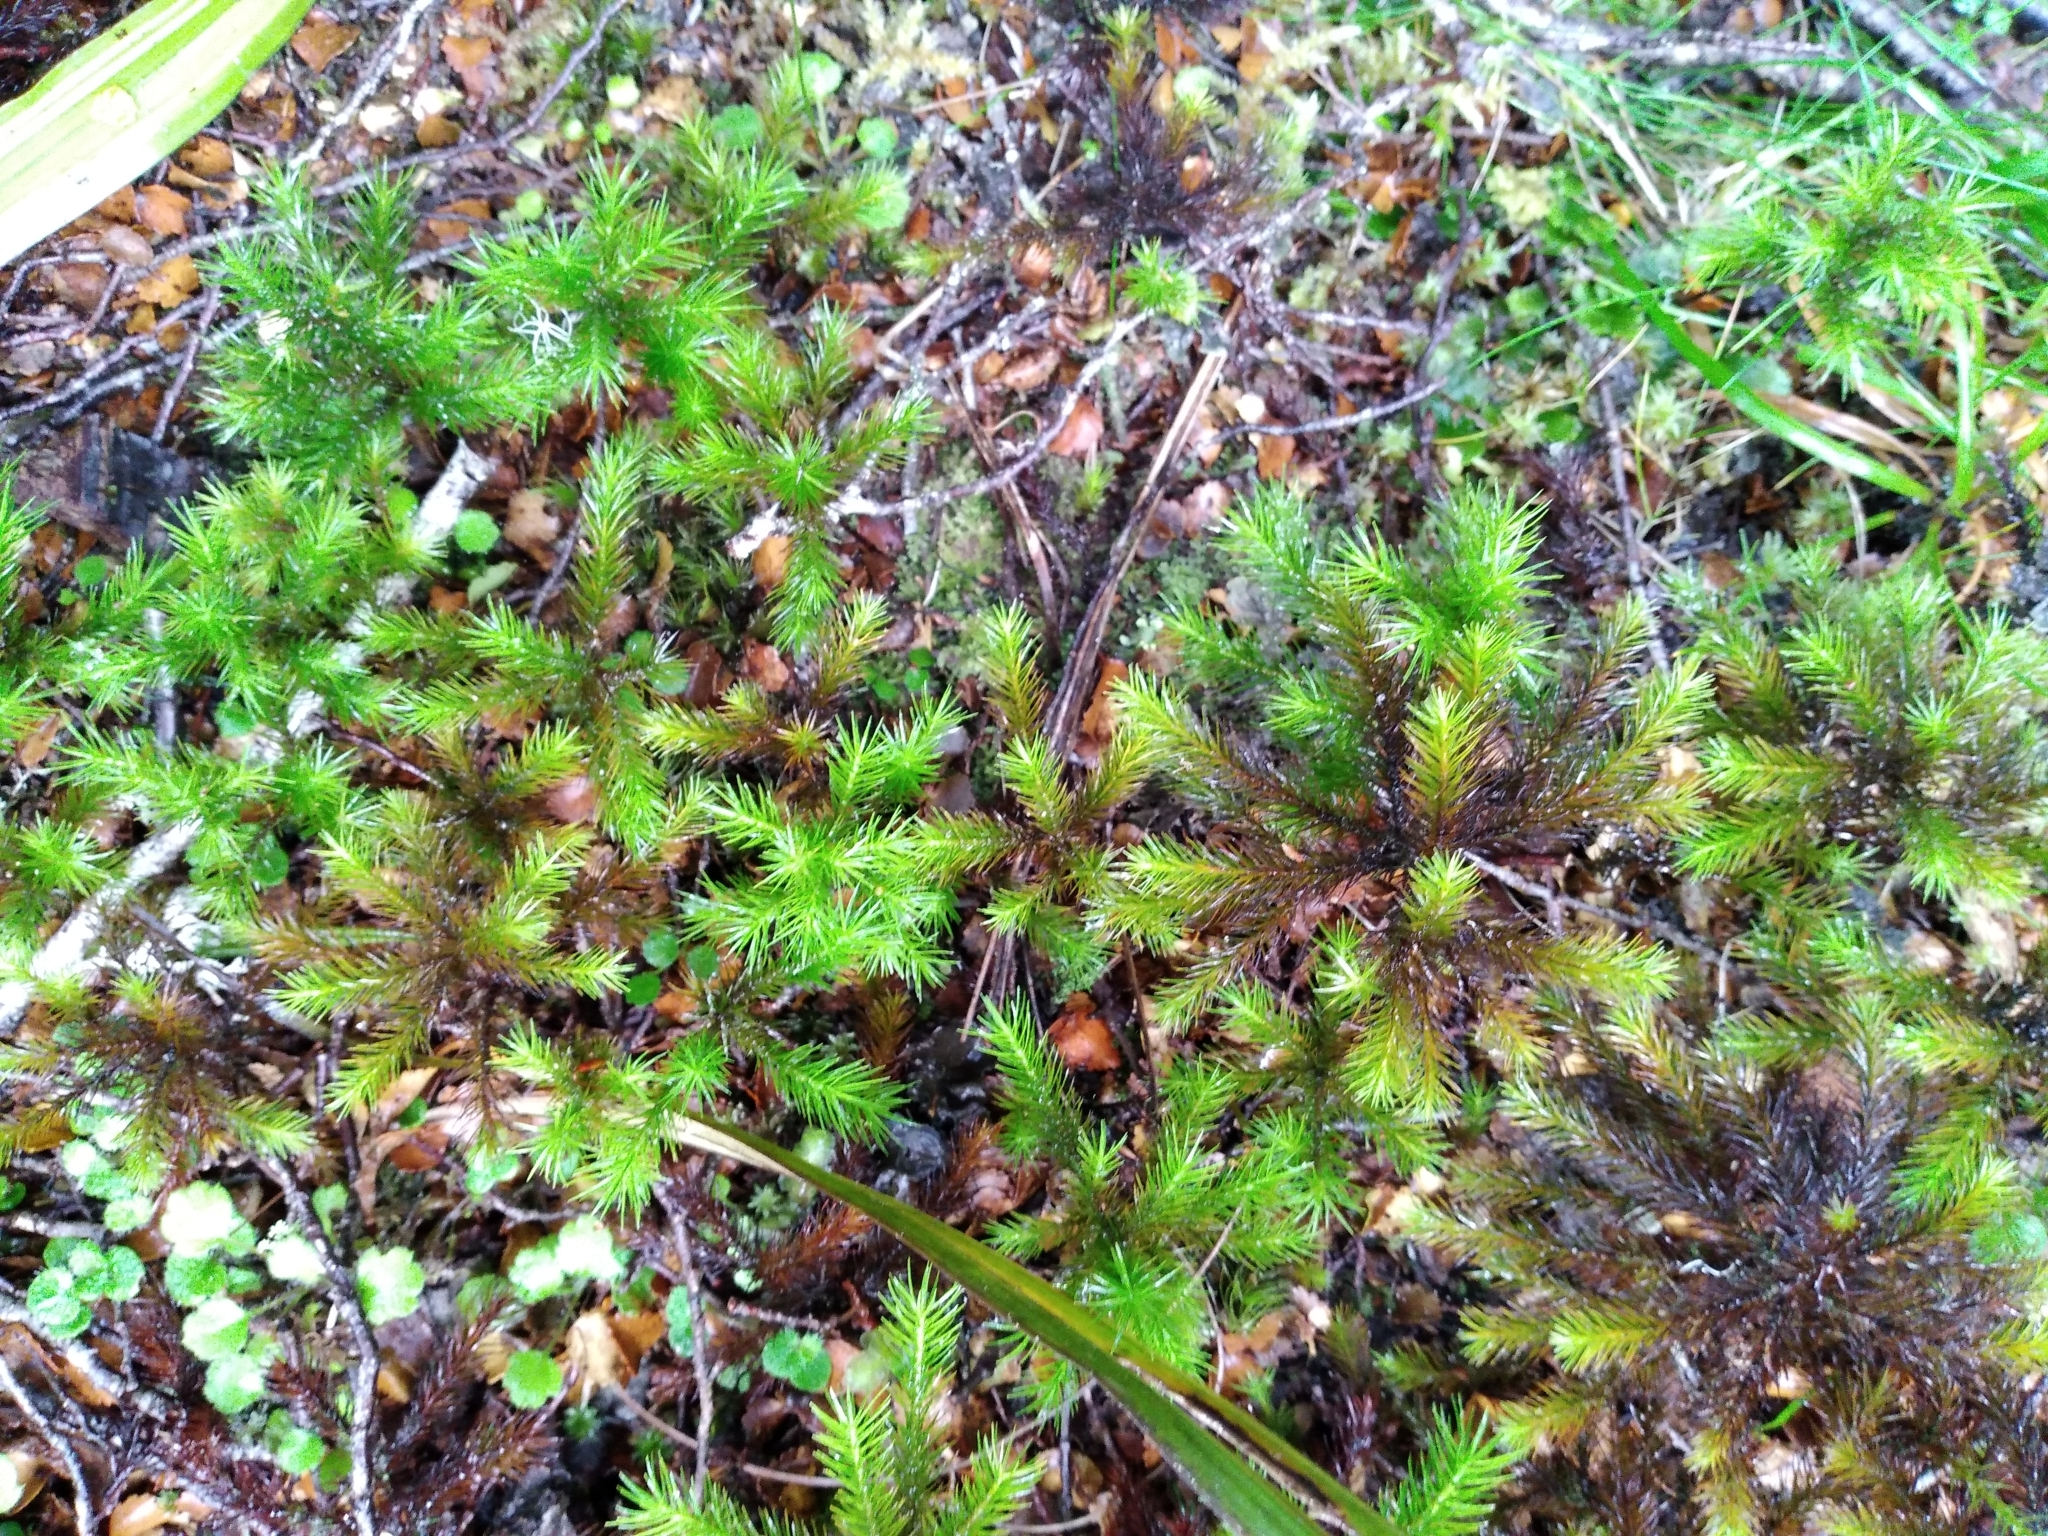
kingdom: Plantae
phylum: Bryophyta
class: Polytrichopsida
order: Polytrichales
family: Polytrichaceae
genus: Dendroligotrichum
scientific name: Dendroligotrichum tongariroense
